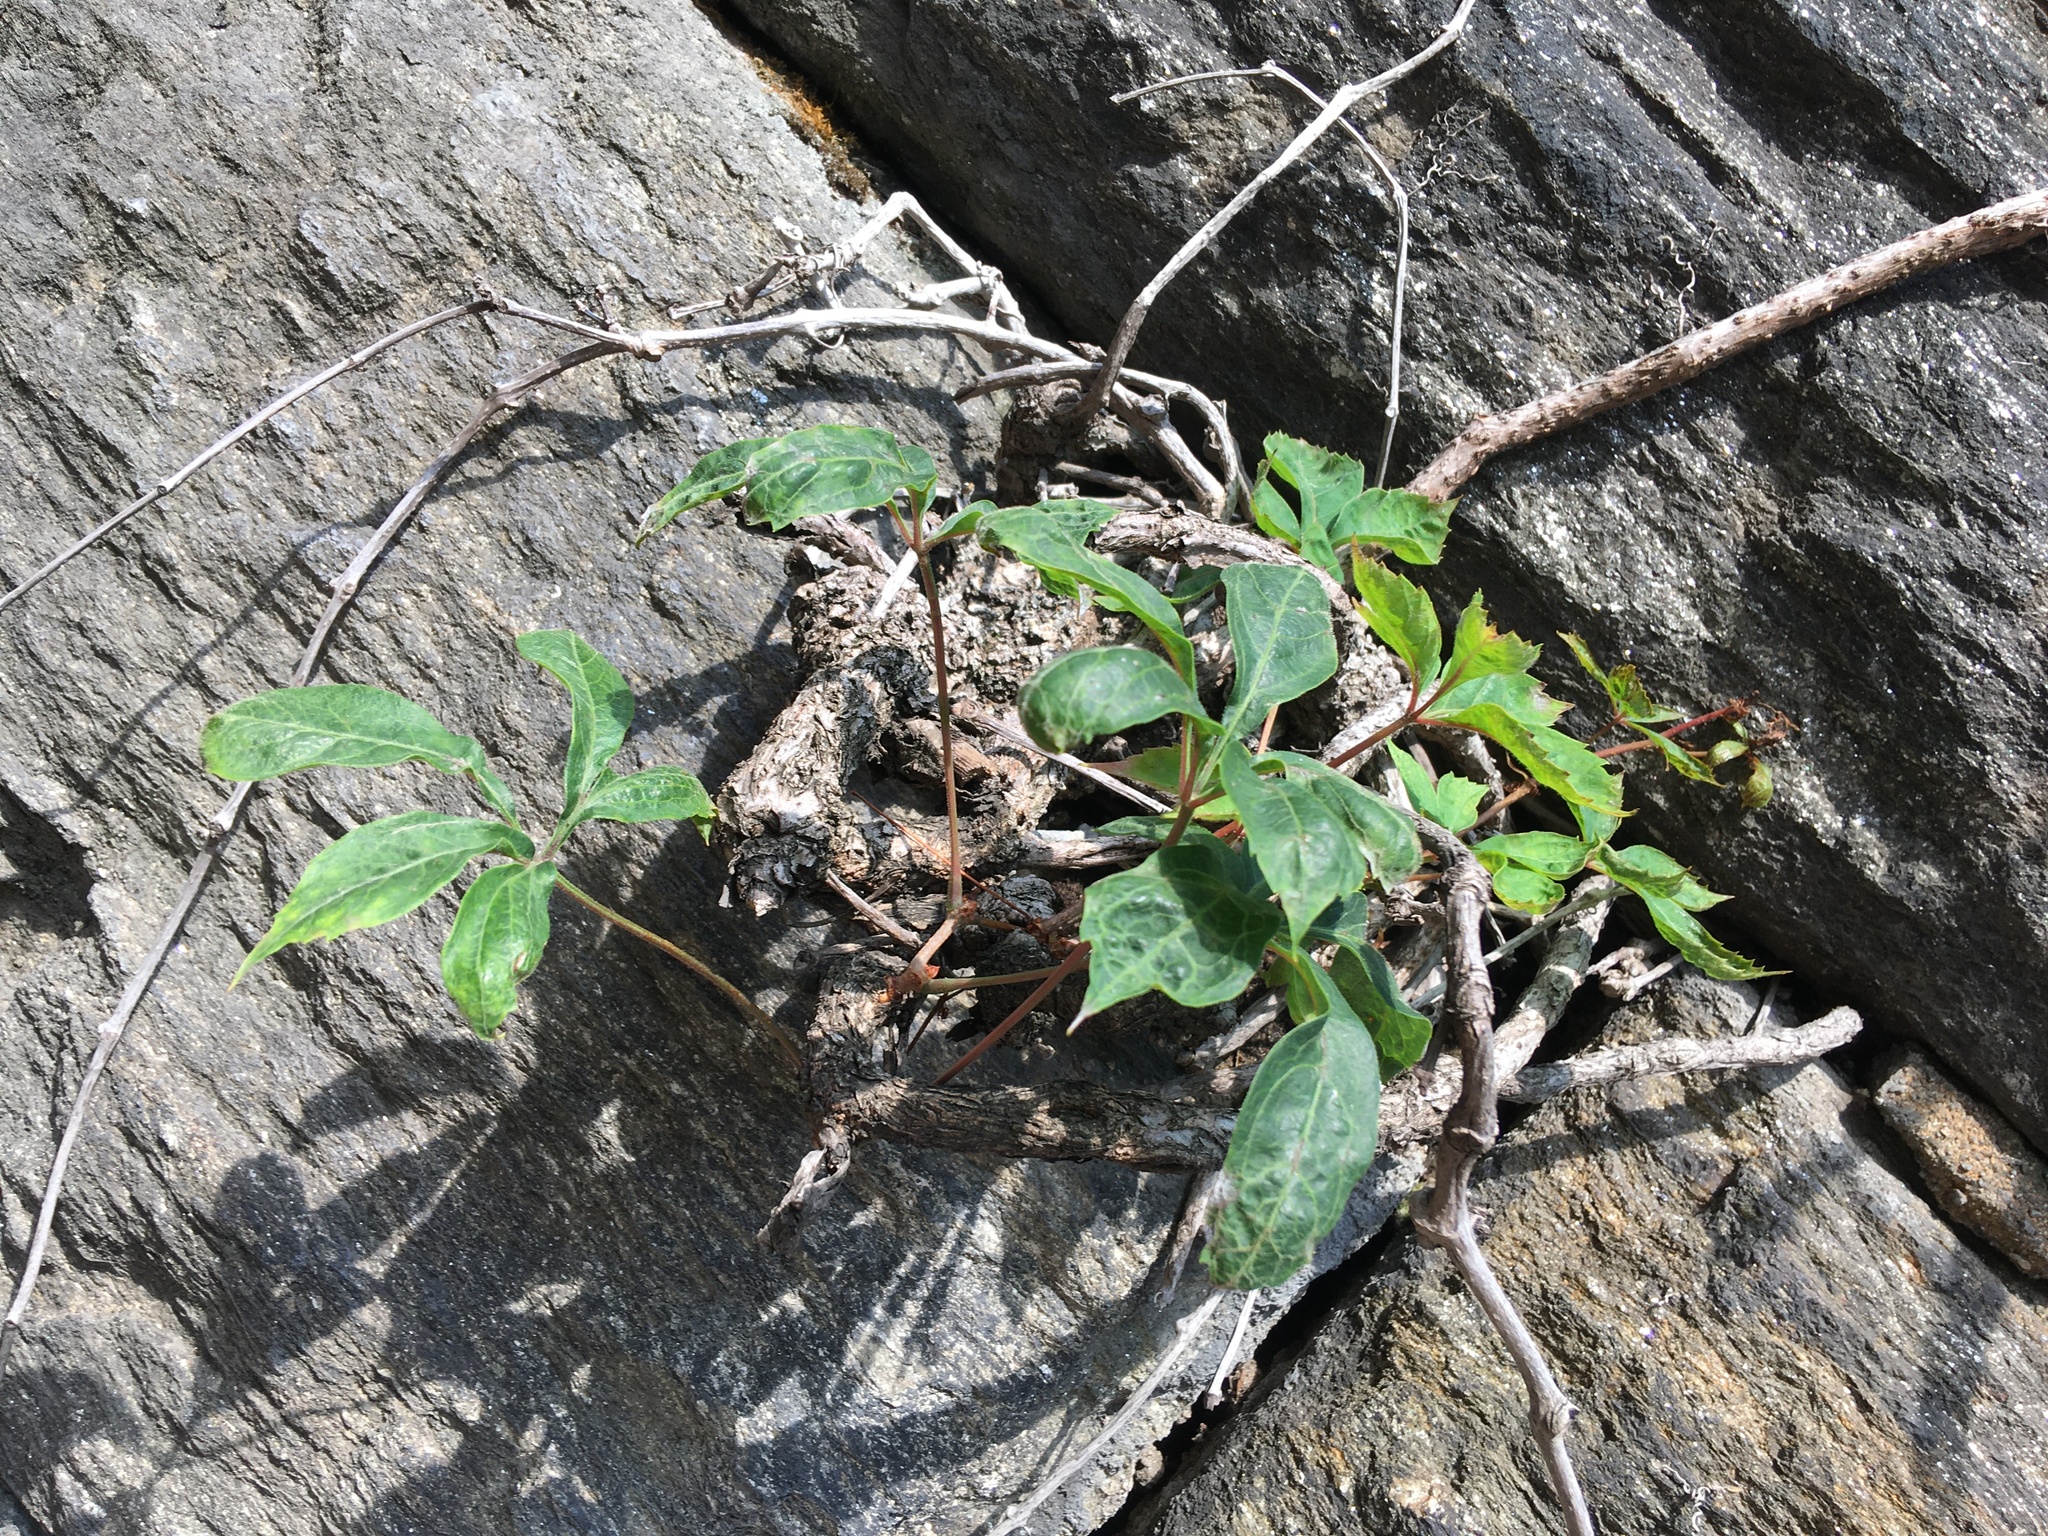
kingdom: Plantae
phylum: Tracheophyta
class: Magnoliopsida
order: Vitales
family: Vitaceae
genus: Parthenocissus
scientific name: Parthenocissus quinquefolia
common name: Virginia-creeper
